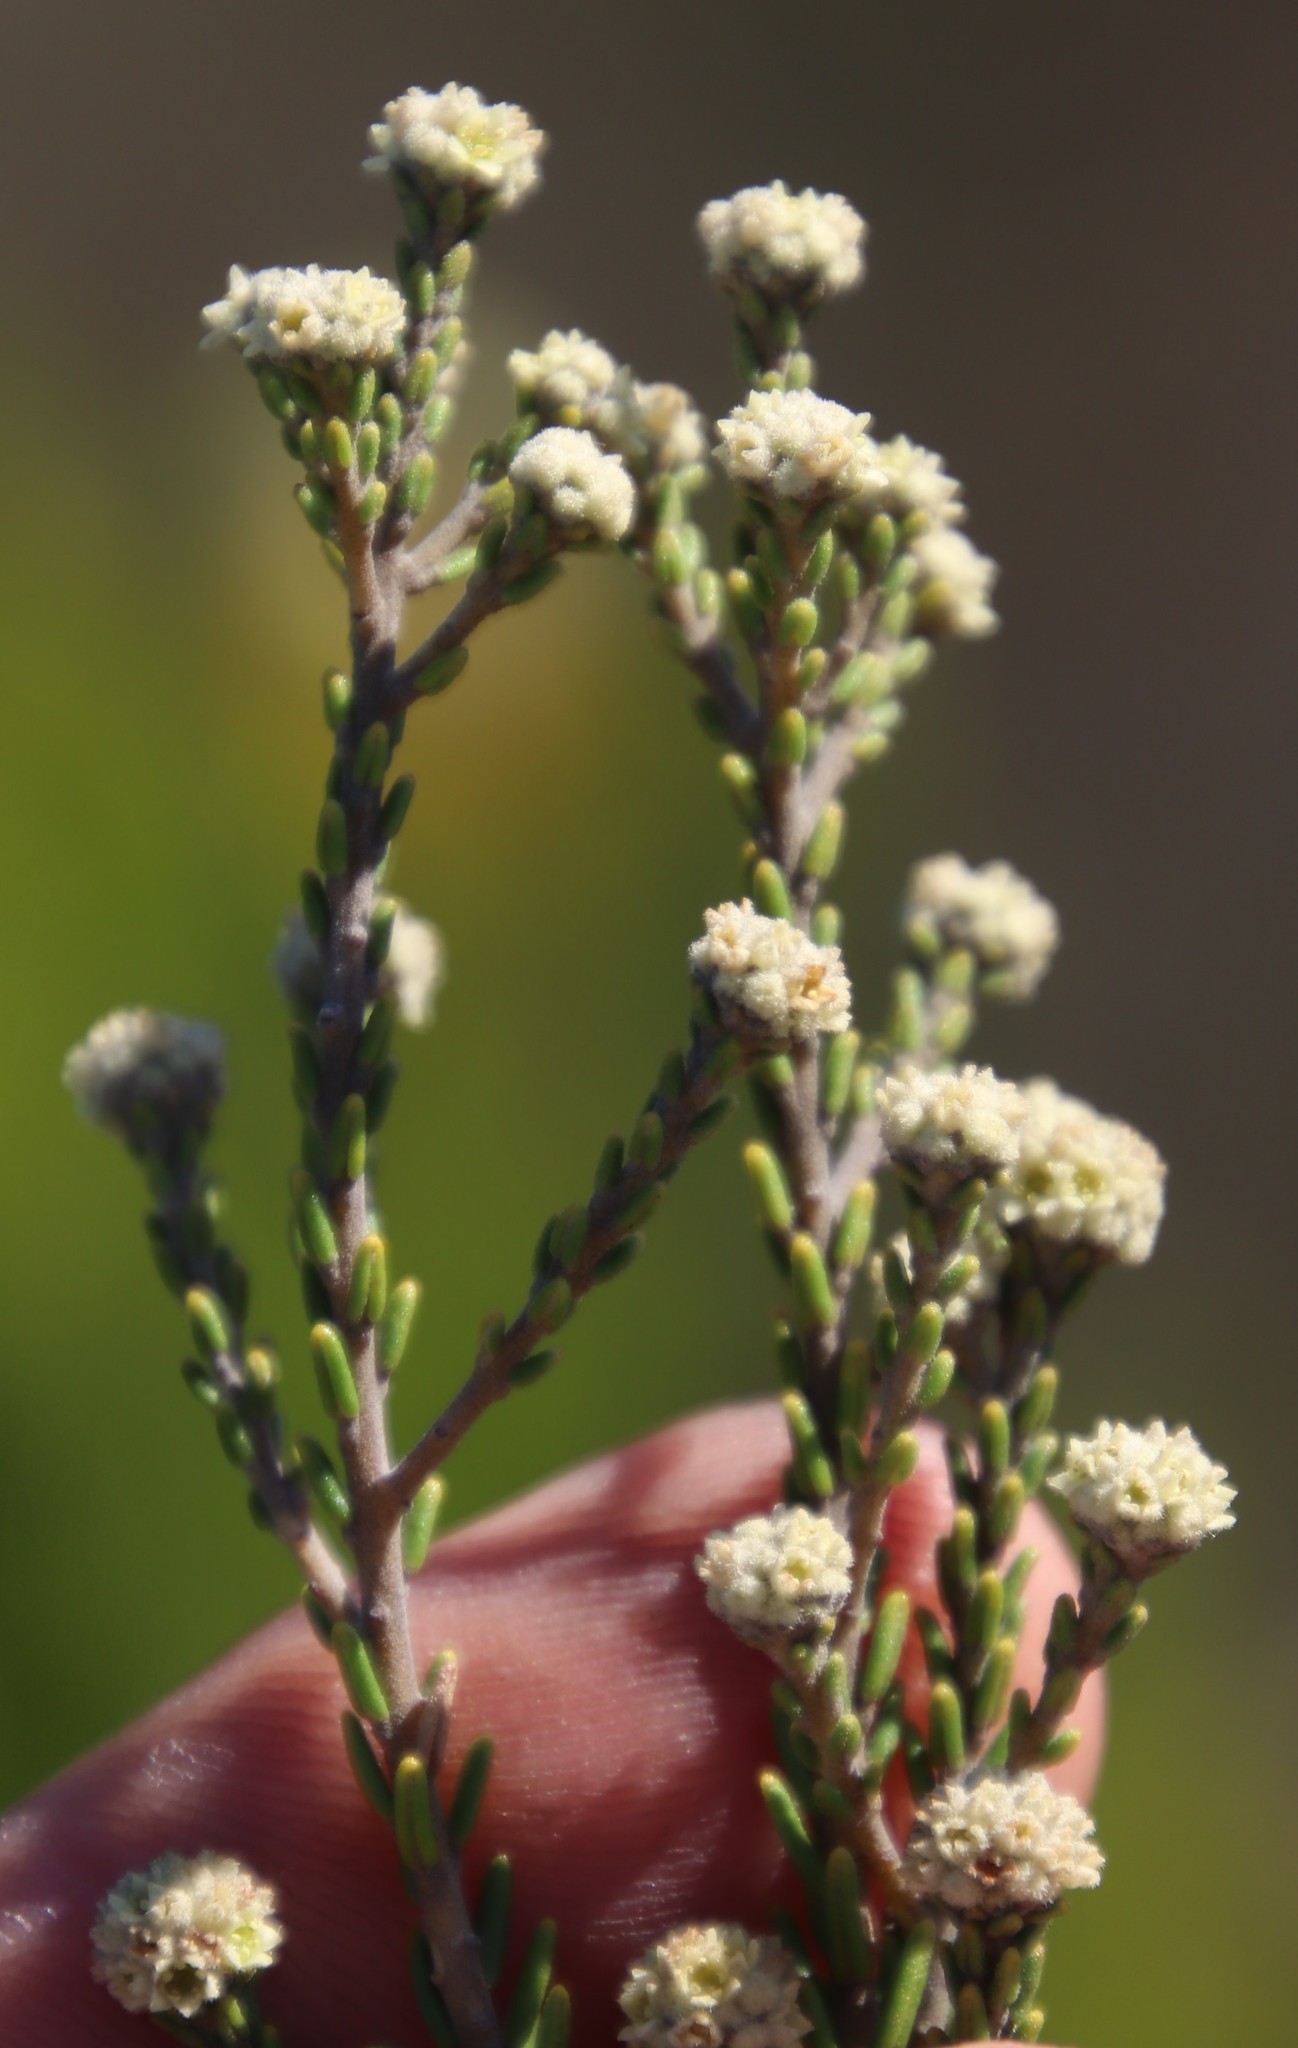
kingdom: Plantae
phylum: Tracheophyta
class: Magnoliopsida
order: Rosales
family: Rhamnaceae
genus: Phylica
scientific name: Phylica cephalantha
